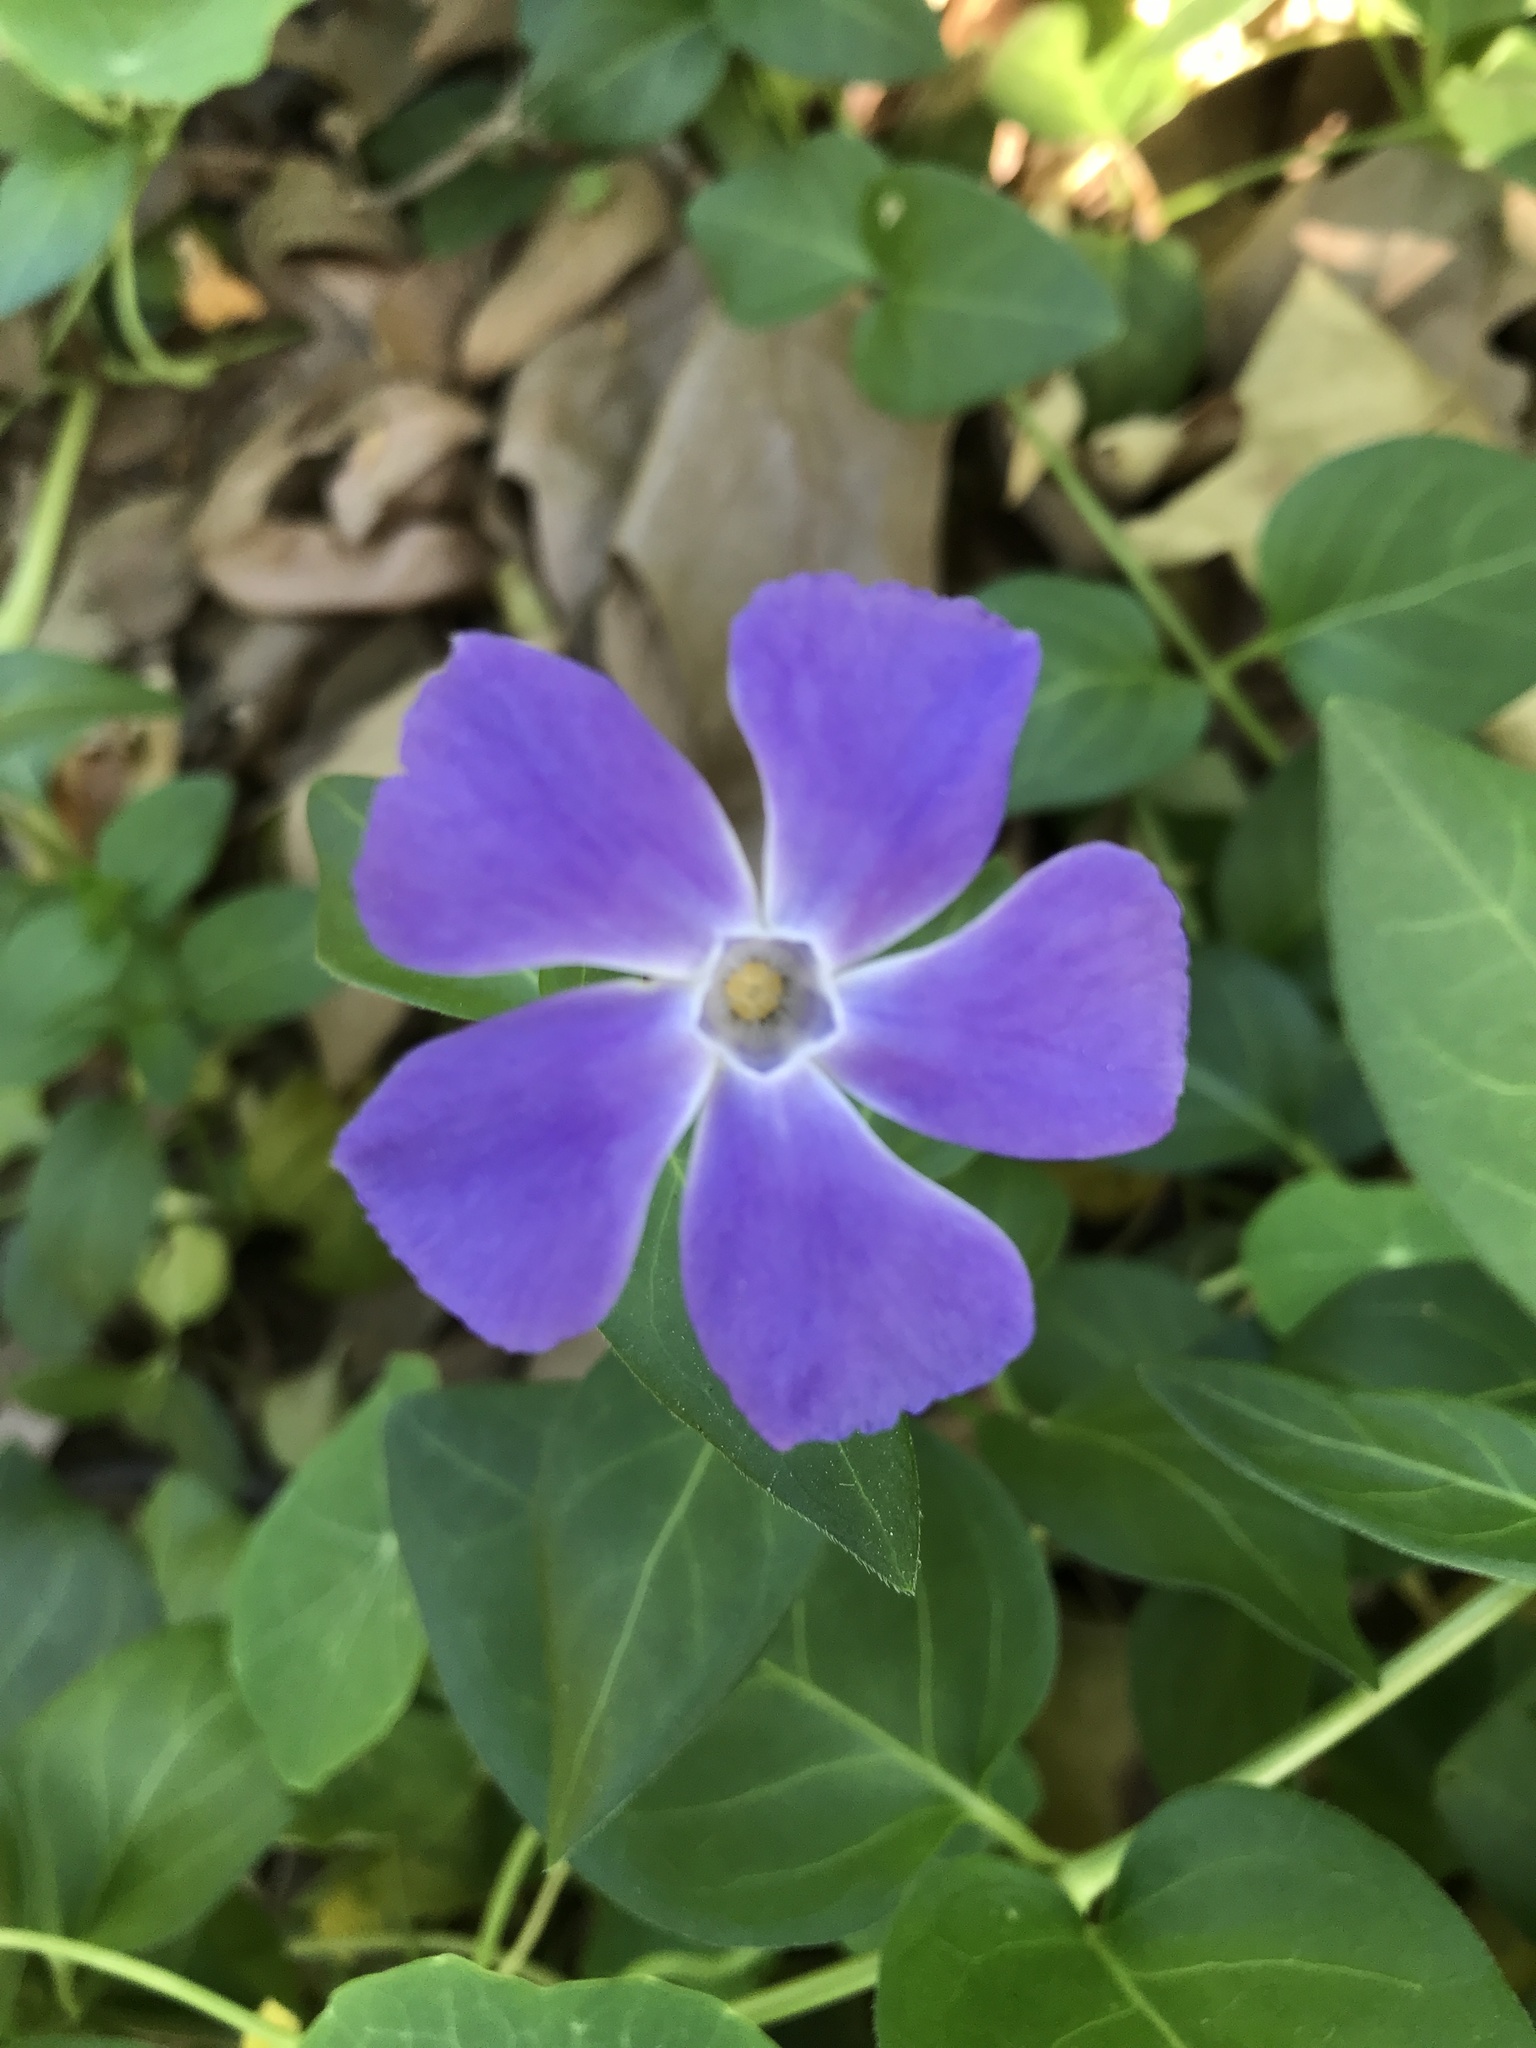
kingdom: Plantae
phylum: Tracheophyta
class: Magnoliopsida
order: Gentianales
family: Apocynaceae
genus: Vinca
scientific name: Vinca major
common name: Greater periwinkle
